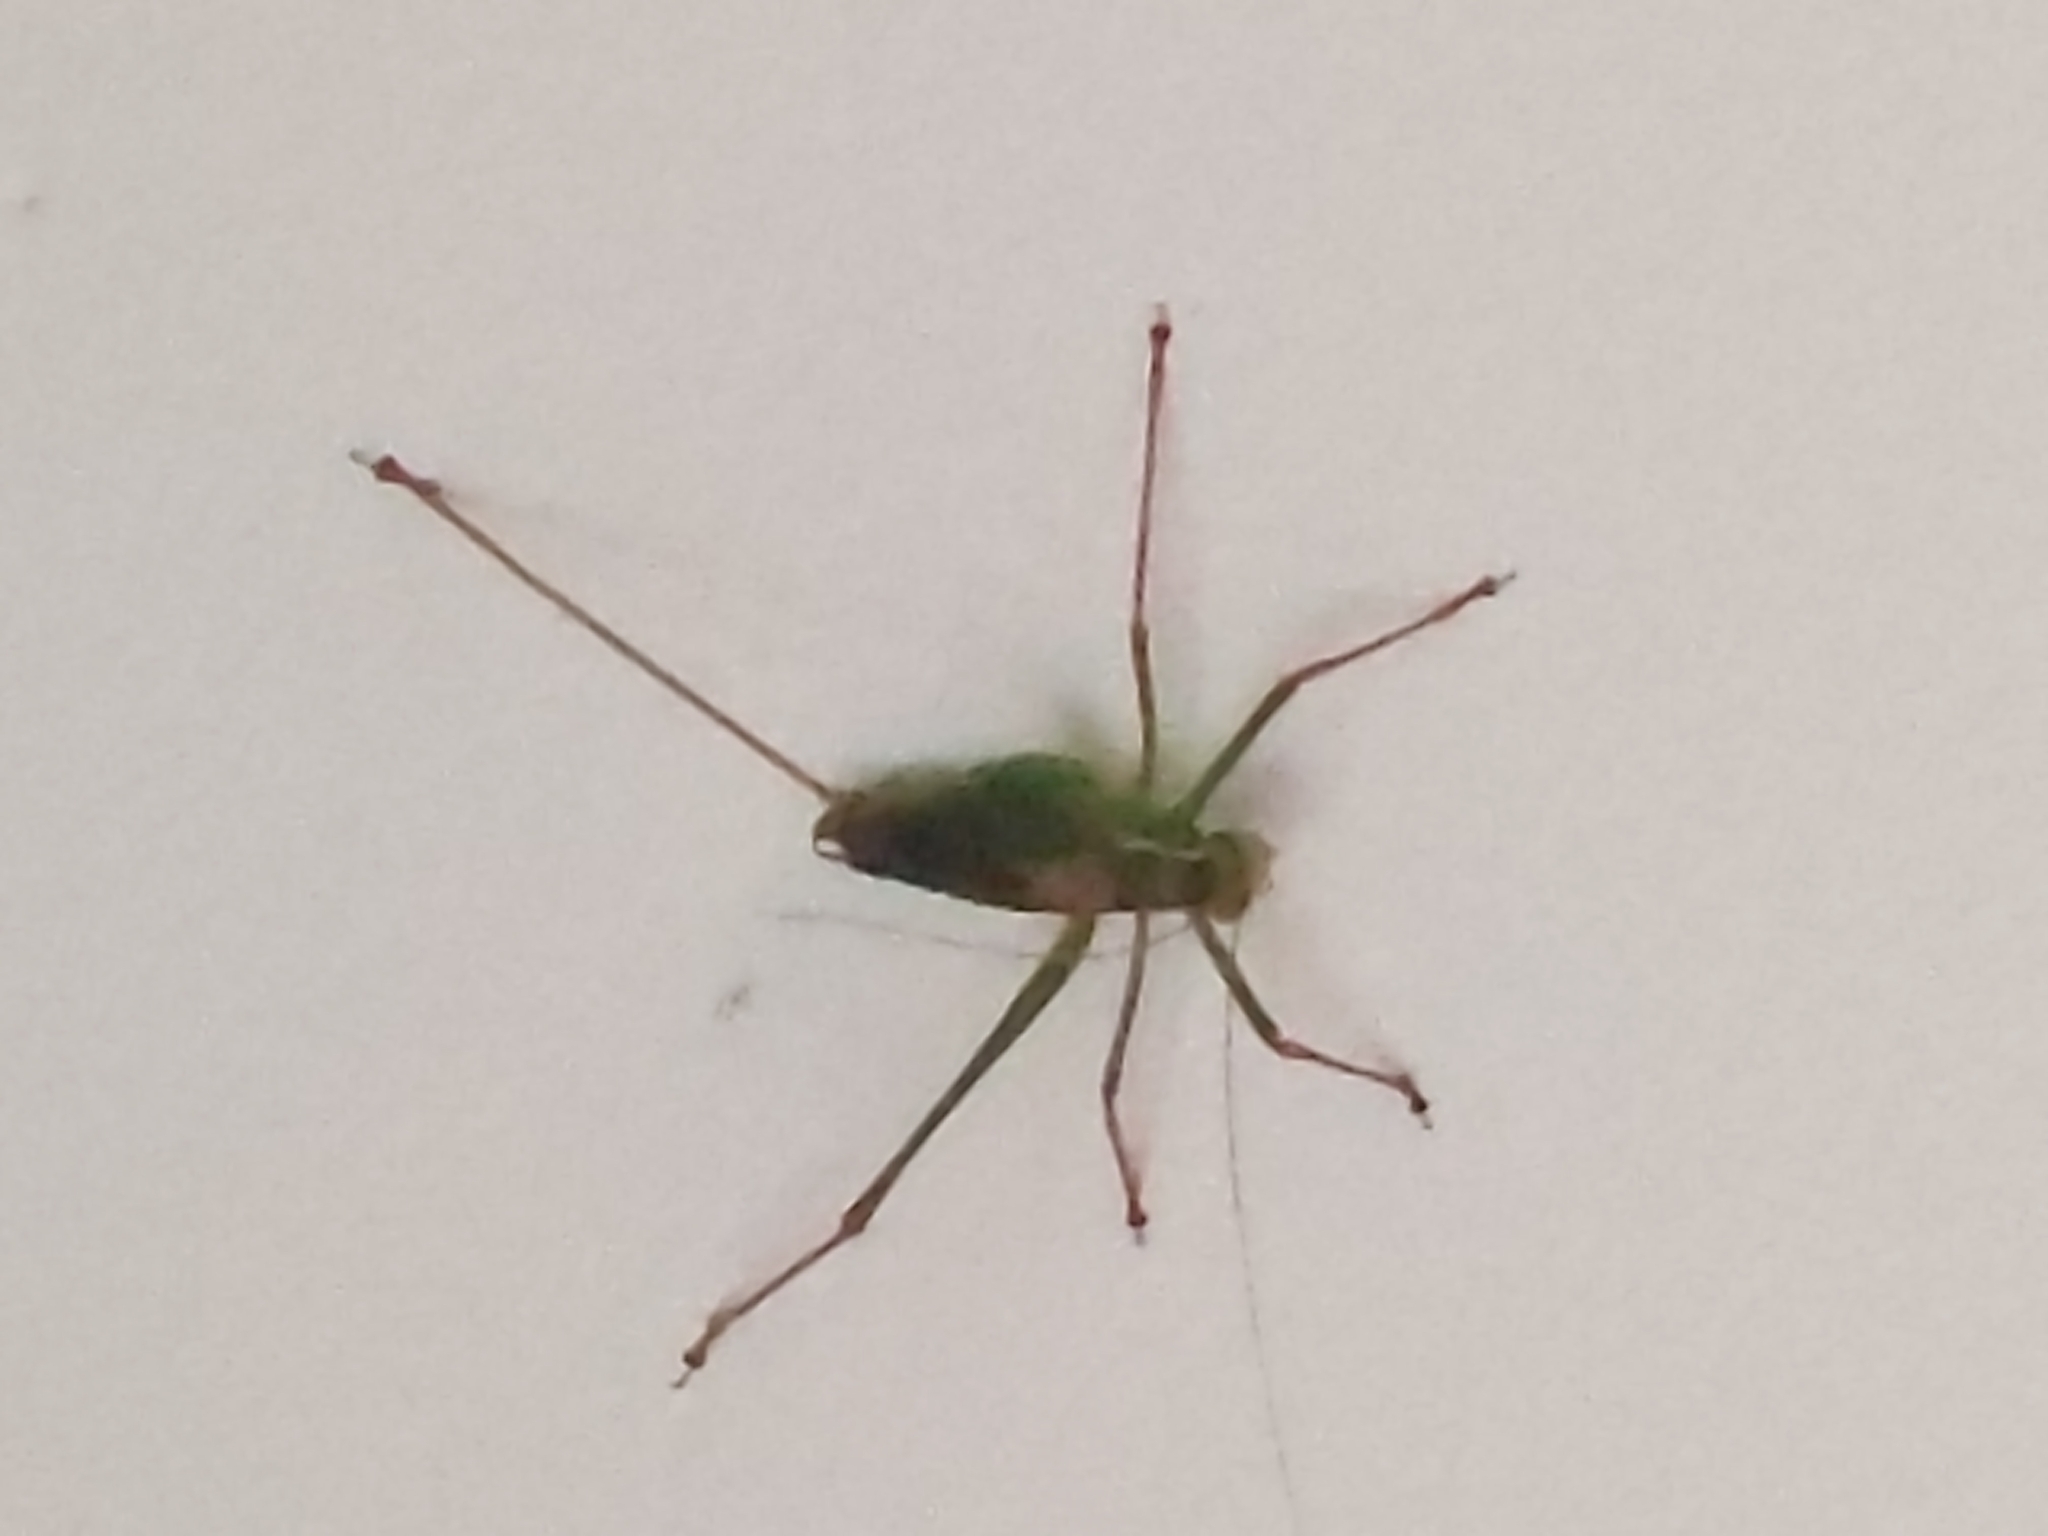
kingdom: Animalia
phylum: Arthropoda
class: Insecta
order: Orthoptera
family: Tettigoniidae
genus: Leptophyes
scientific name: Leptophyes punctatissima
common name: Speckled bush-cricket
